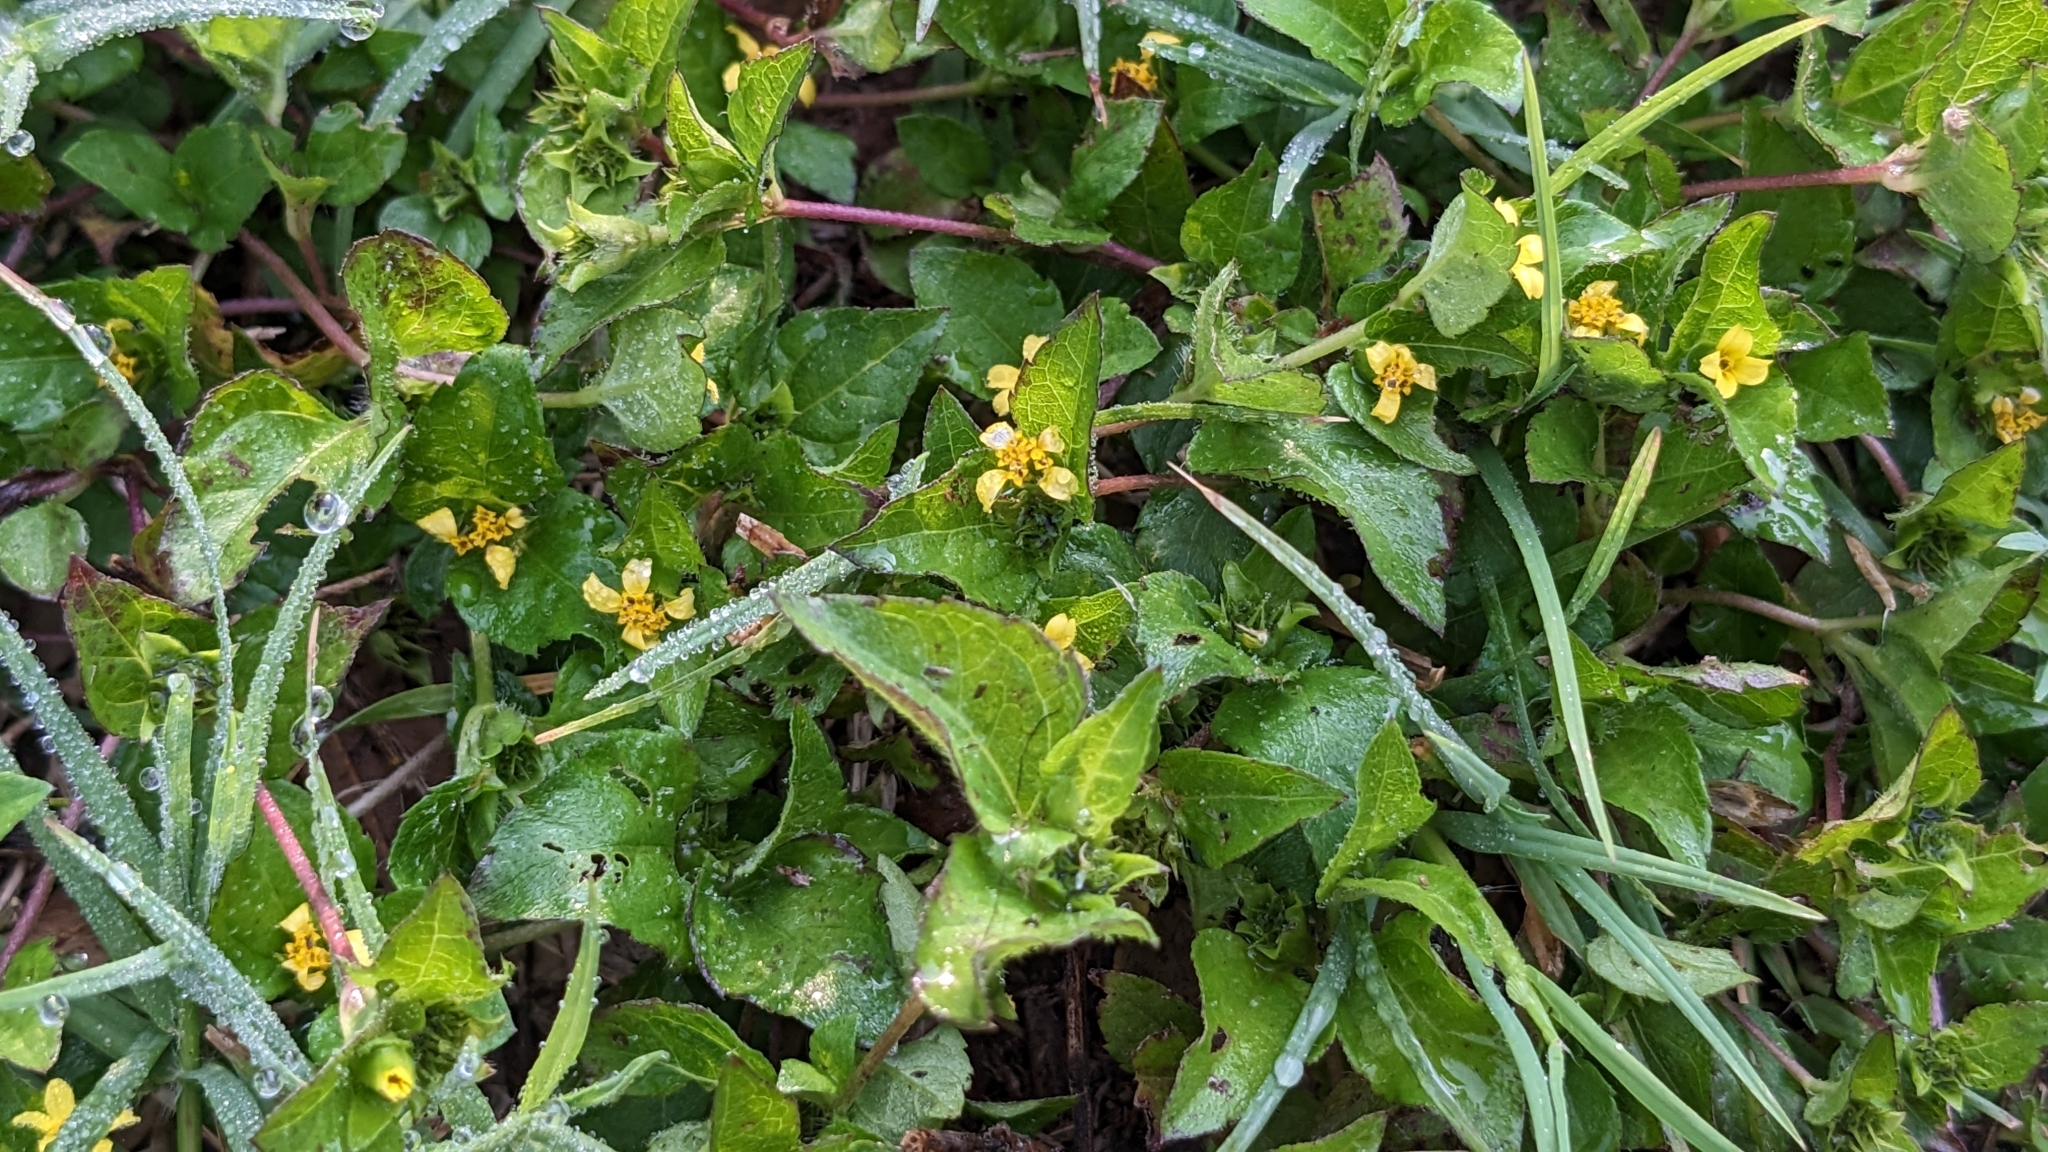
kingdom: Plantae
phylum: Tracheophyta
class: Magnoliopsida
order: Asterales
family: Asteraceae
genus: Calyptocarpus
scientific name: Calyptocarpus vialis
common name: Straggler daisy
